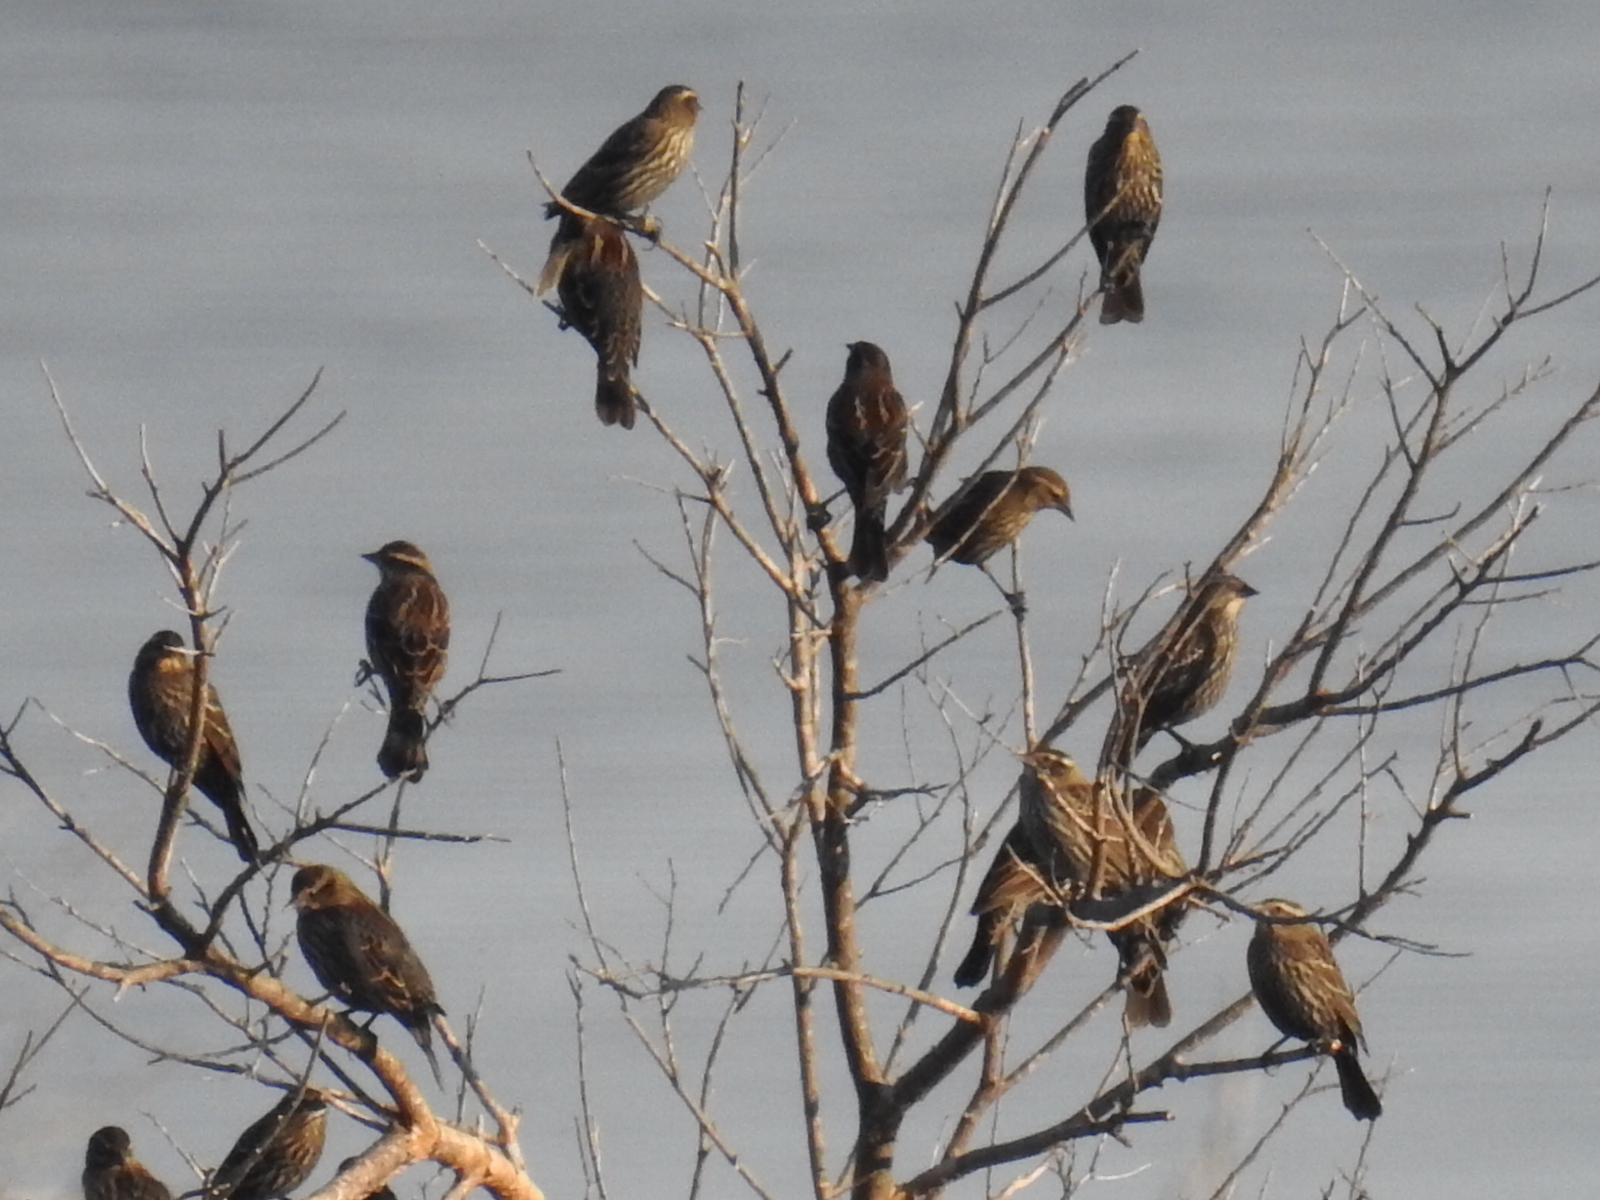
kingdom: Animalia
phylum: Chordata
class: Aves
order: Passeriformes
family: Icteridae
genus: Agelaius
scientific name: Agelaius phoeniceus
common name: Red-winged blackbird
